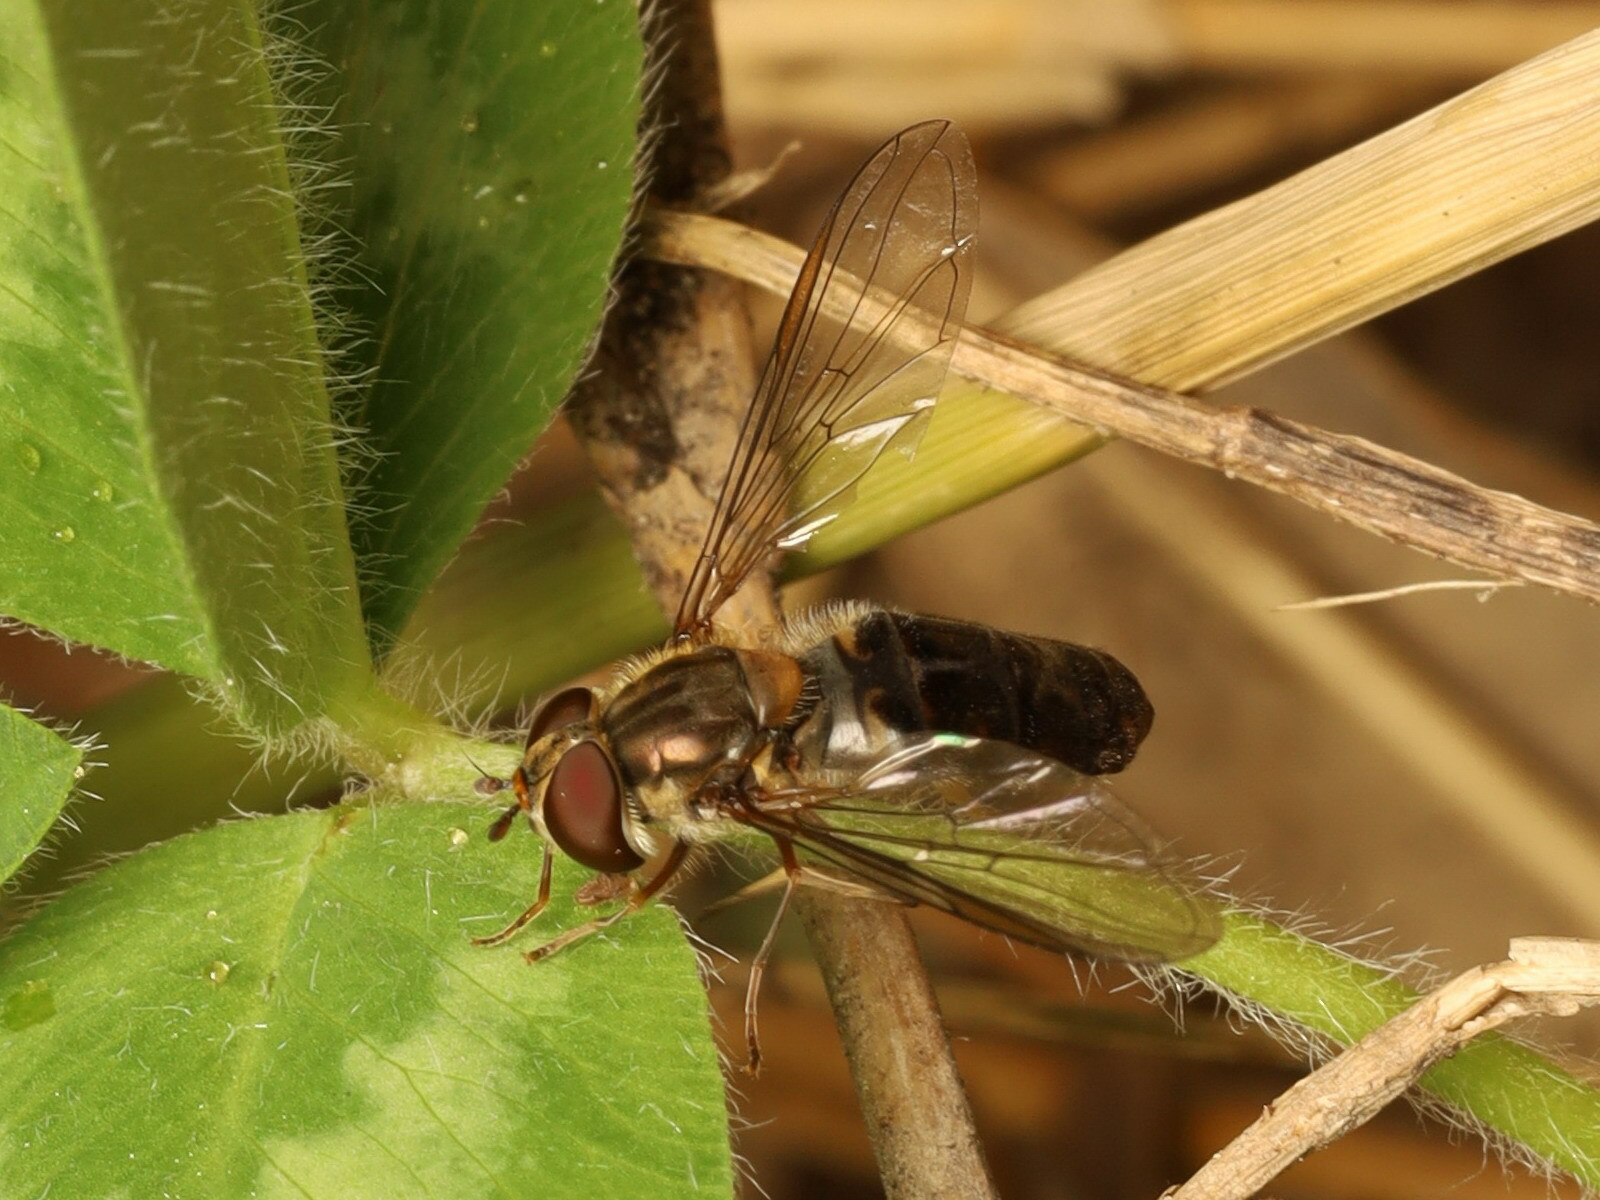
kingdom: Animalia
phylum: Arthropoda
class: Insecta
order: Diptera
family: Syrphidae
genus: Episyrphus
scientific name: Episyrphus balteatus
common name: Marmalade hoverfly
